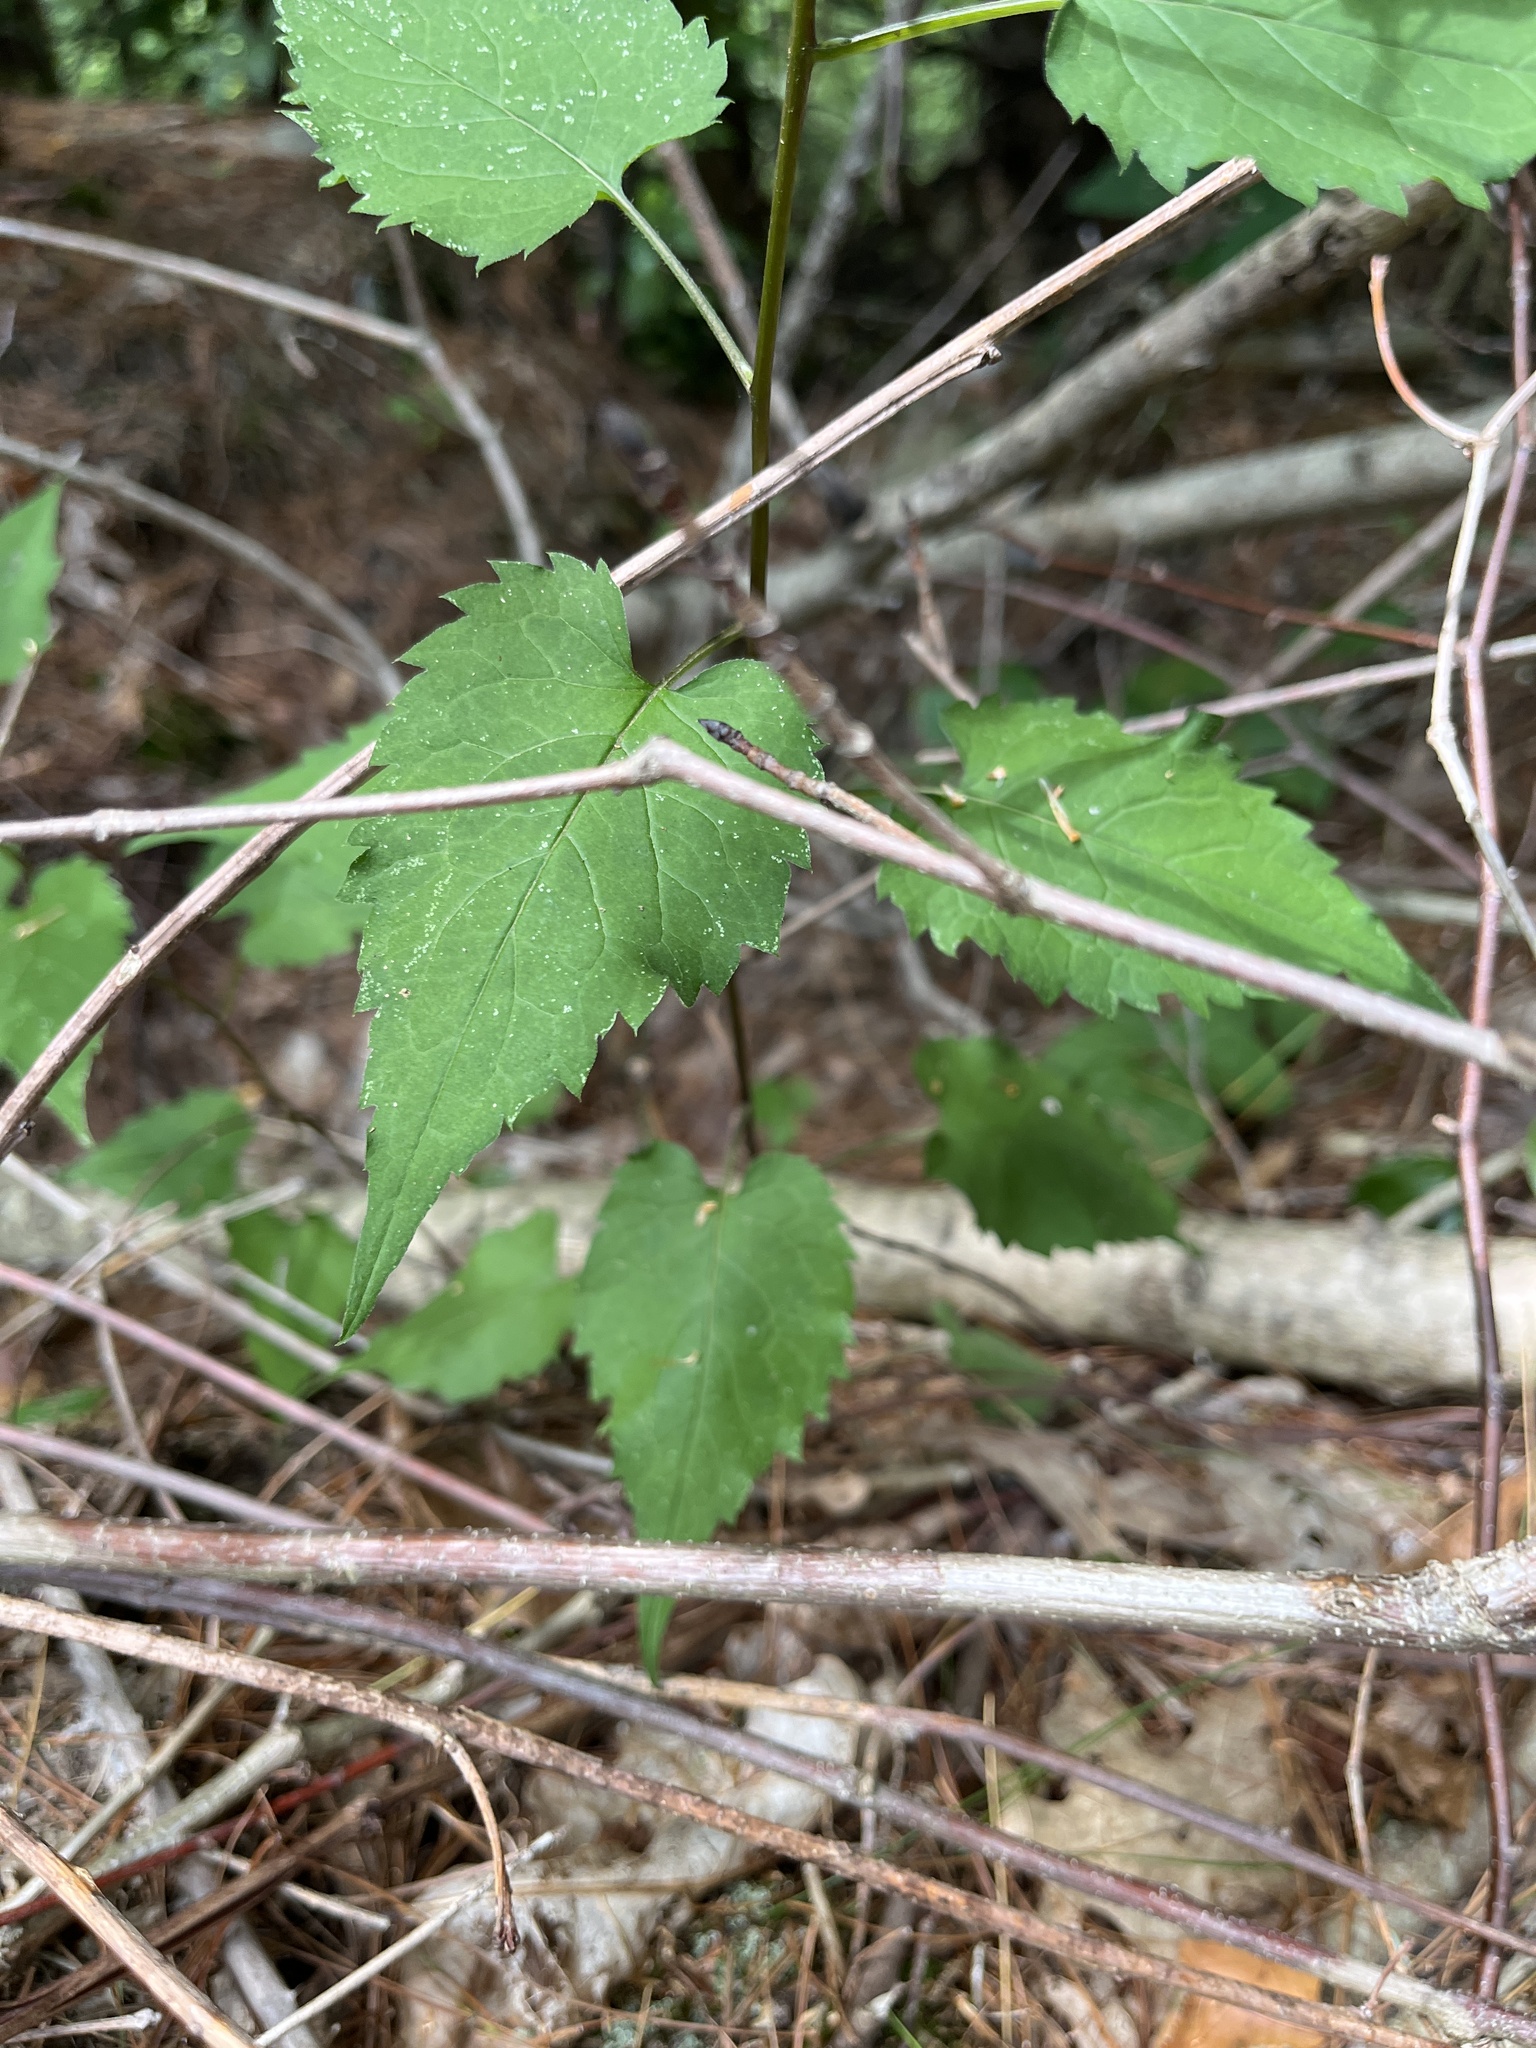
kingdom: Plantae
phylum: Tracheophyta
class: Magnoliopsida
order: Asterales
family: Asteraceae
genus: Eurybia
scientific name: Eurybia divaricata
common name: White wood aster
